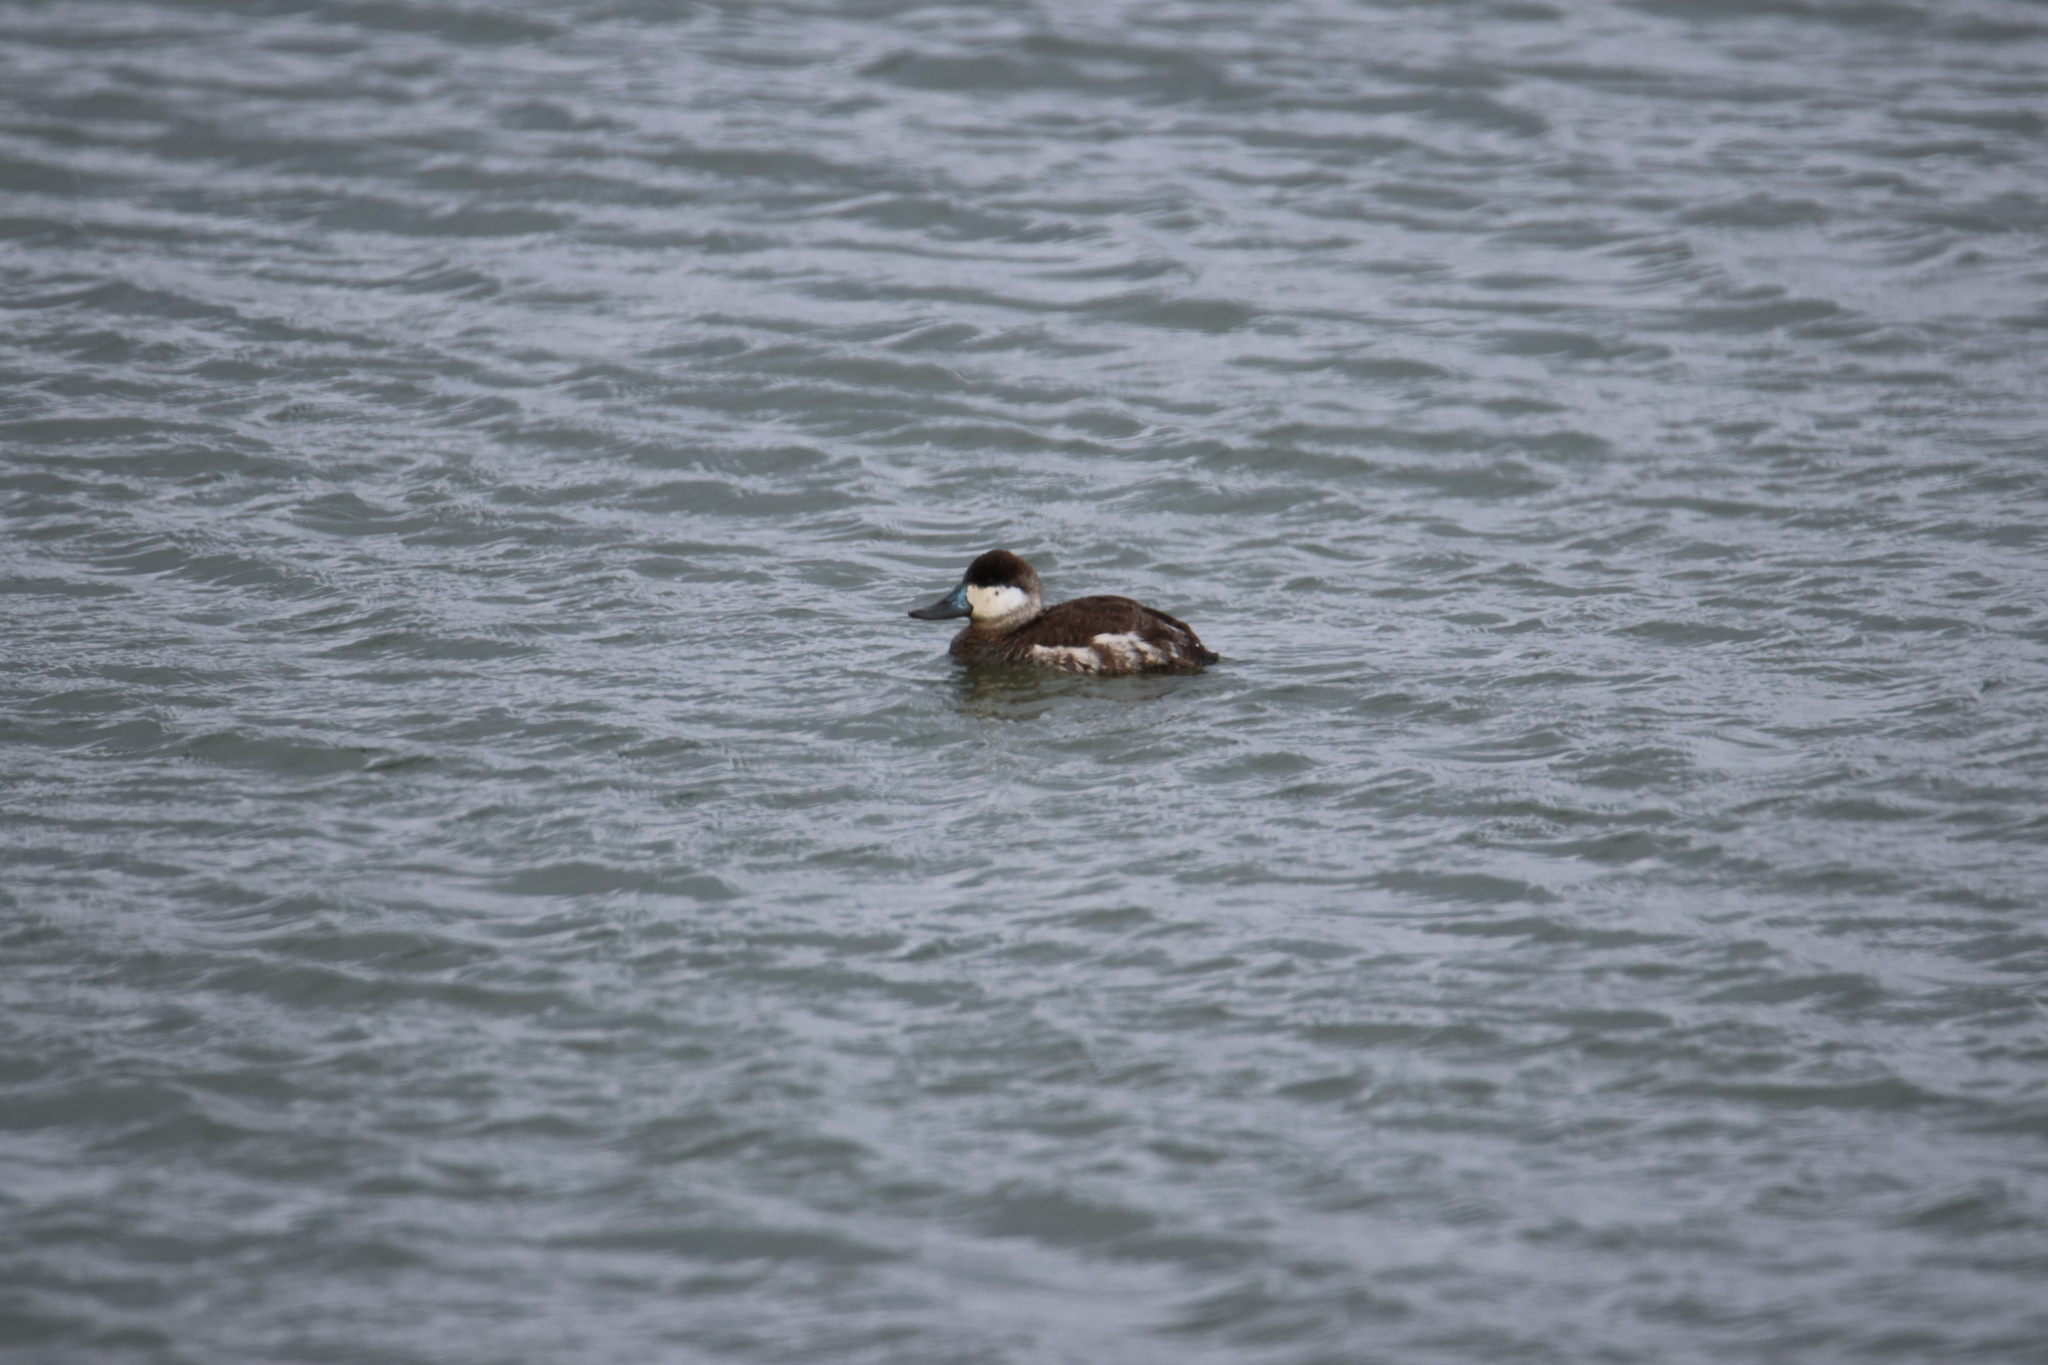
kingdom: Animalia
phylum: Chordata
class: Aves
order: Anseriformes
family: Anatidae
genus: Oxyura
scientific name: Oxyura jamaicensis
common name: Ruddy duck
